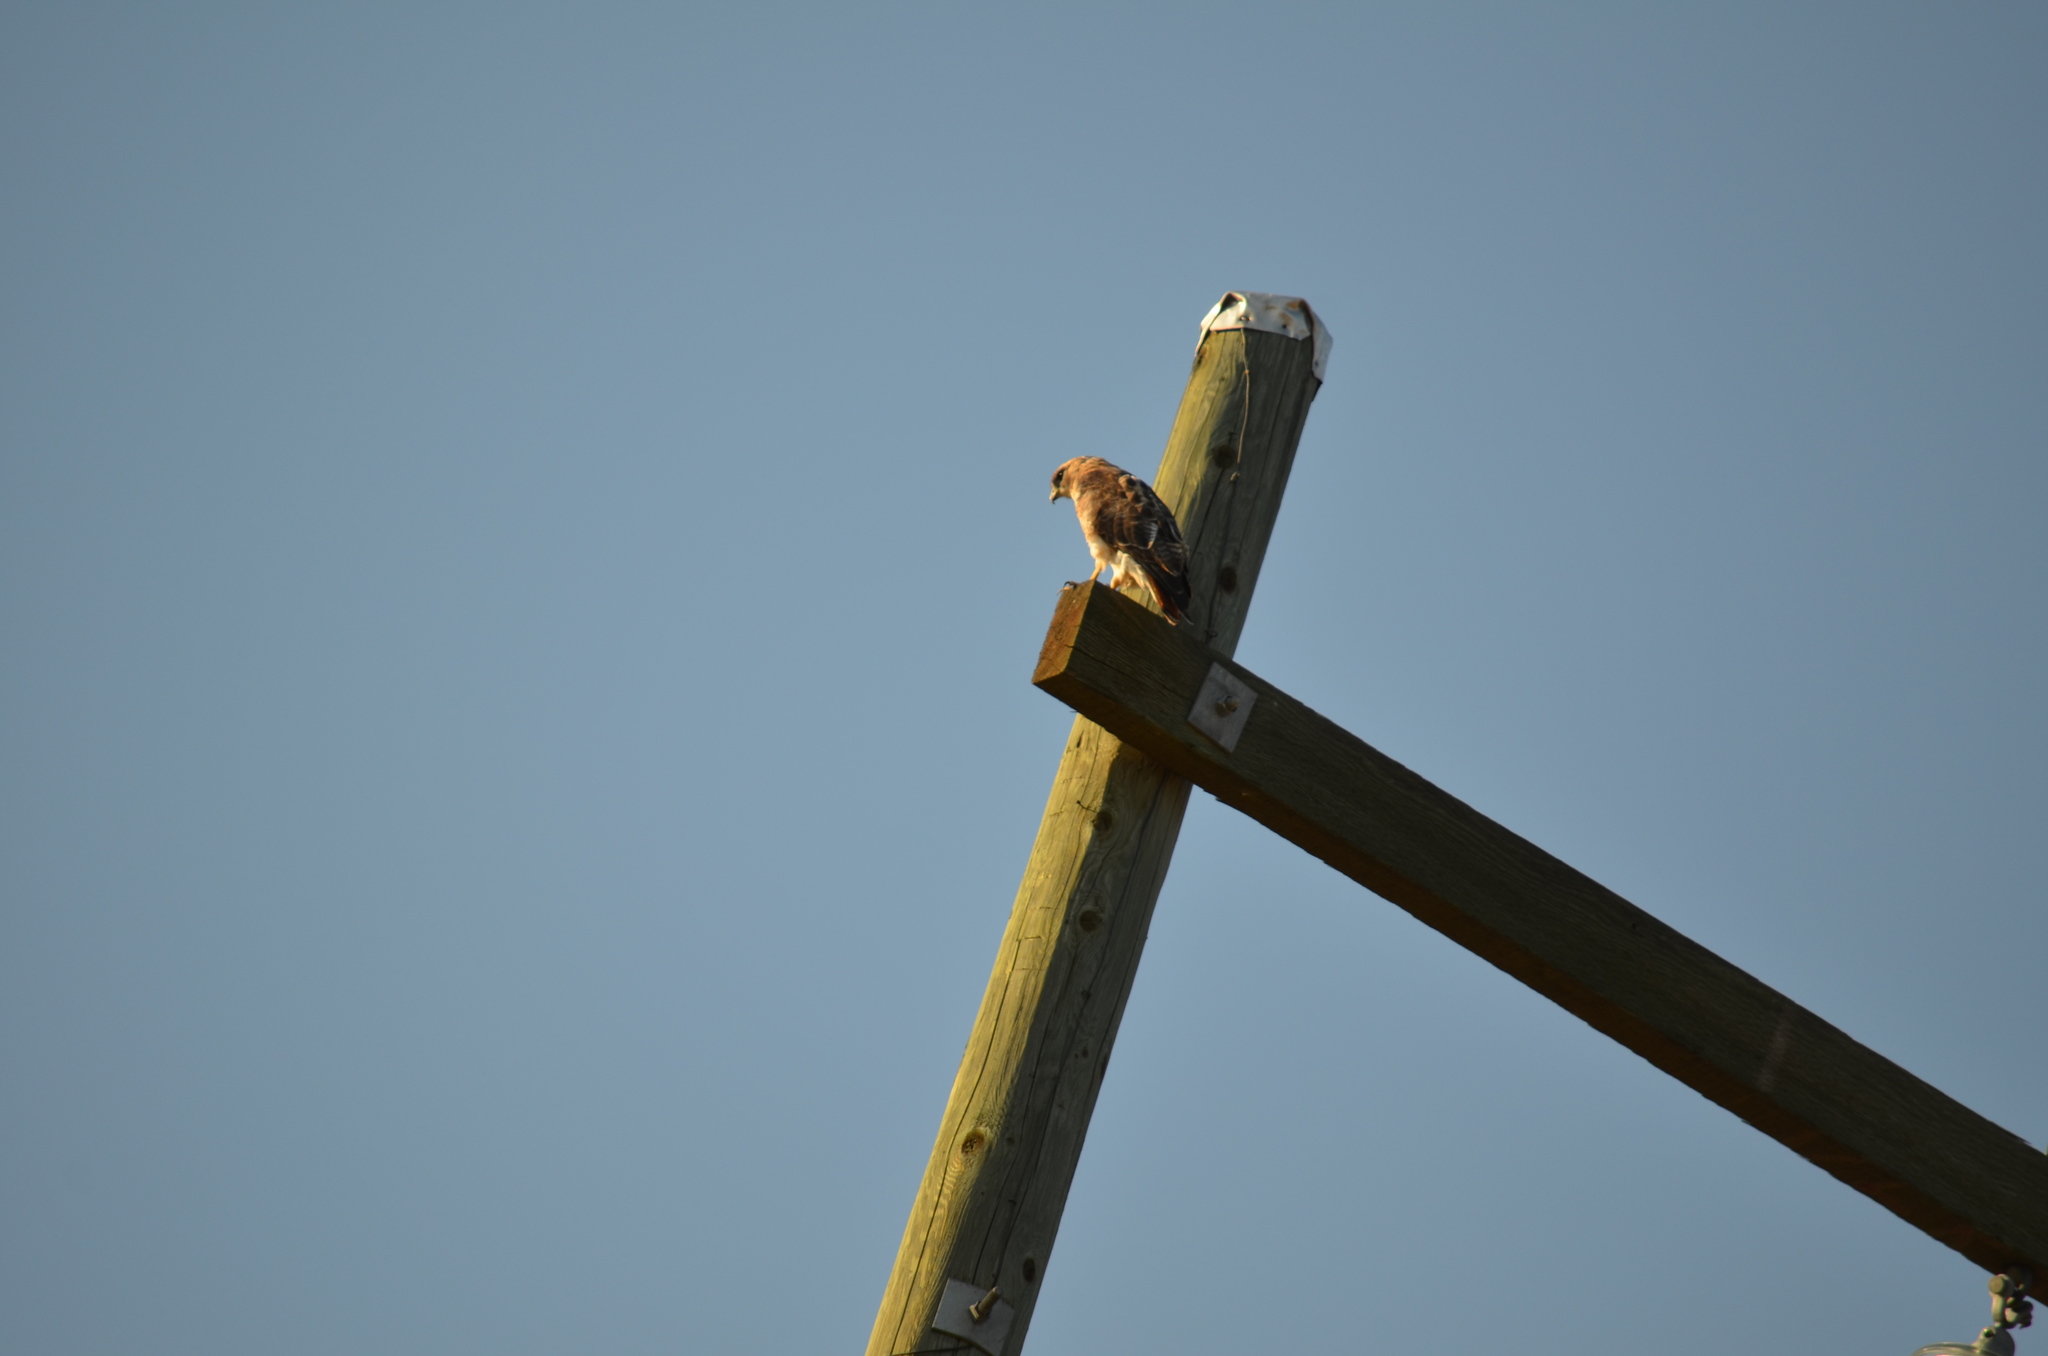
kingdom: Animalia
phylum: Chordata
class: Aves
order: Accipitriformes
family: Accipitridae
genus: Buteo
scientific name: Buteo jamaicensis
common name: Red-tailed hawk
